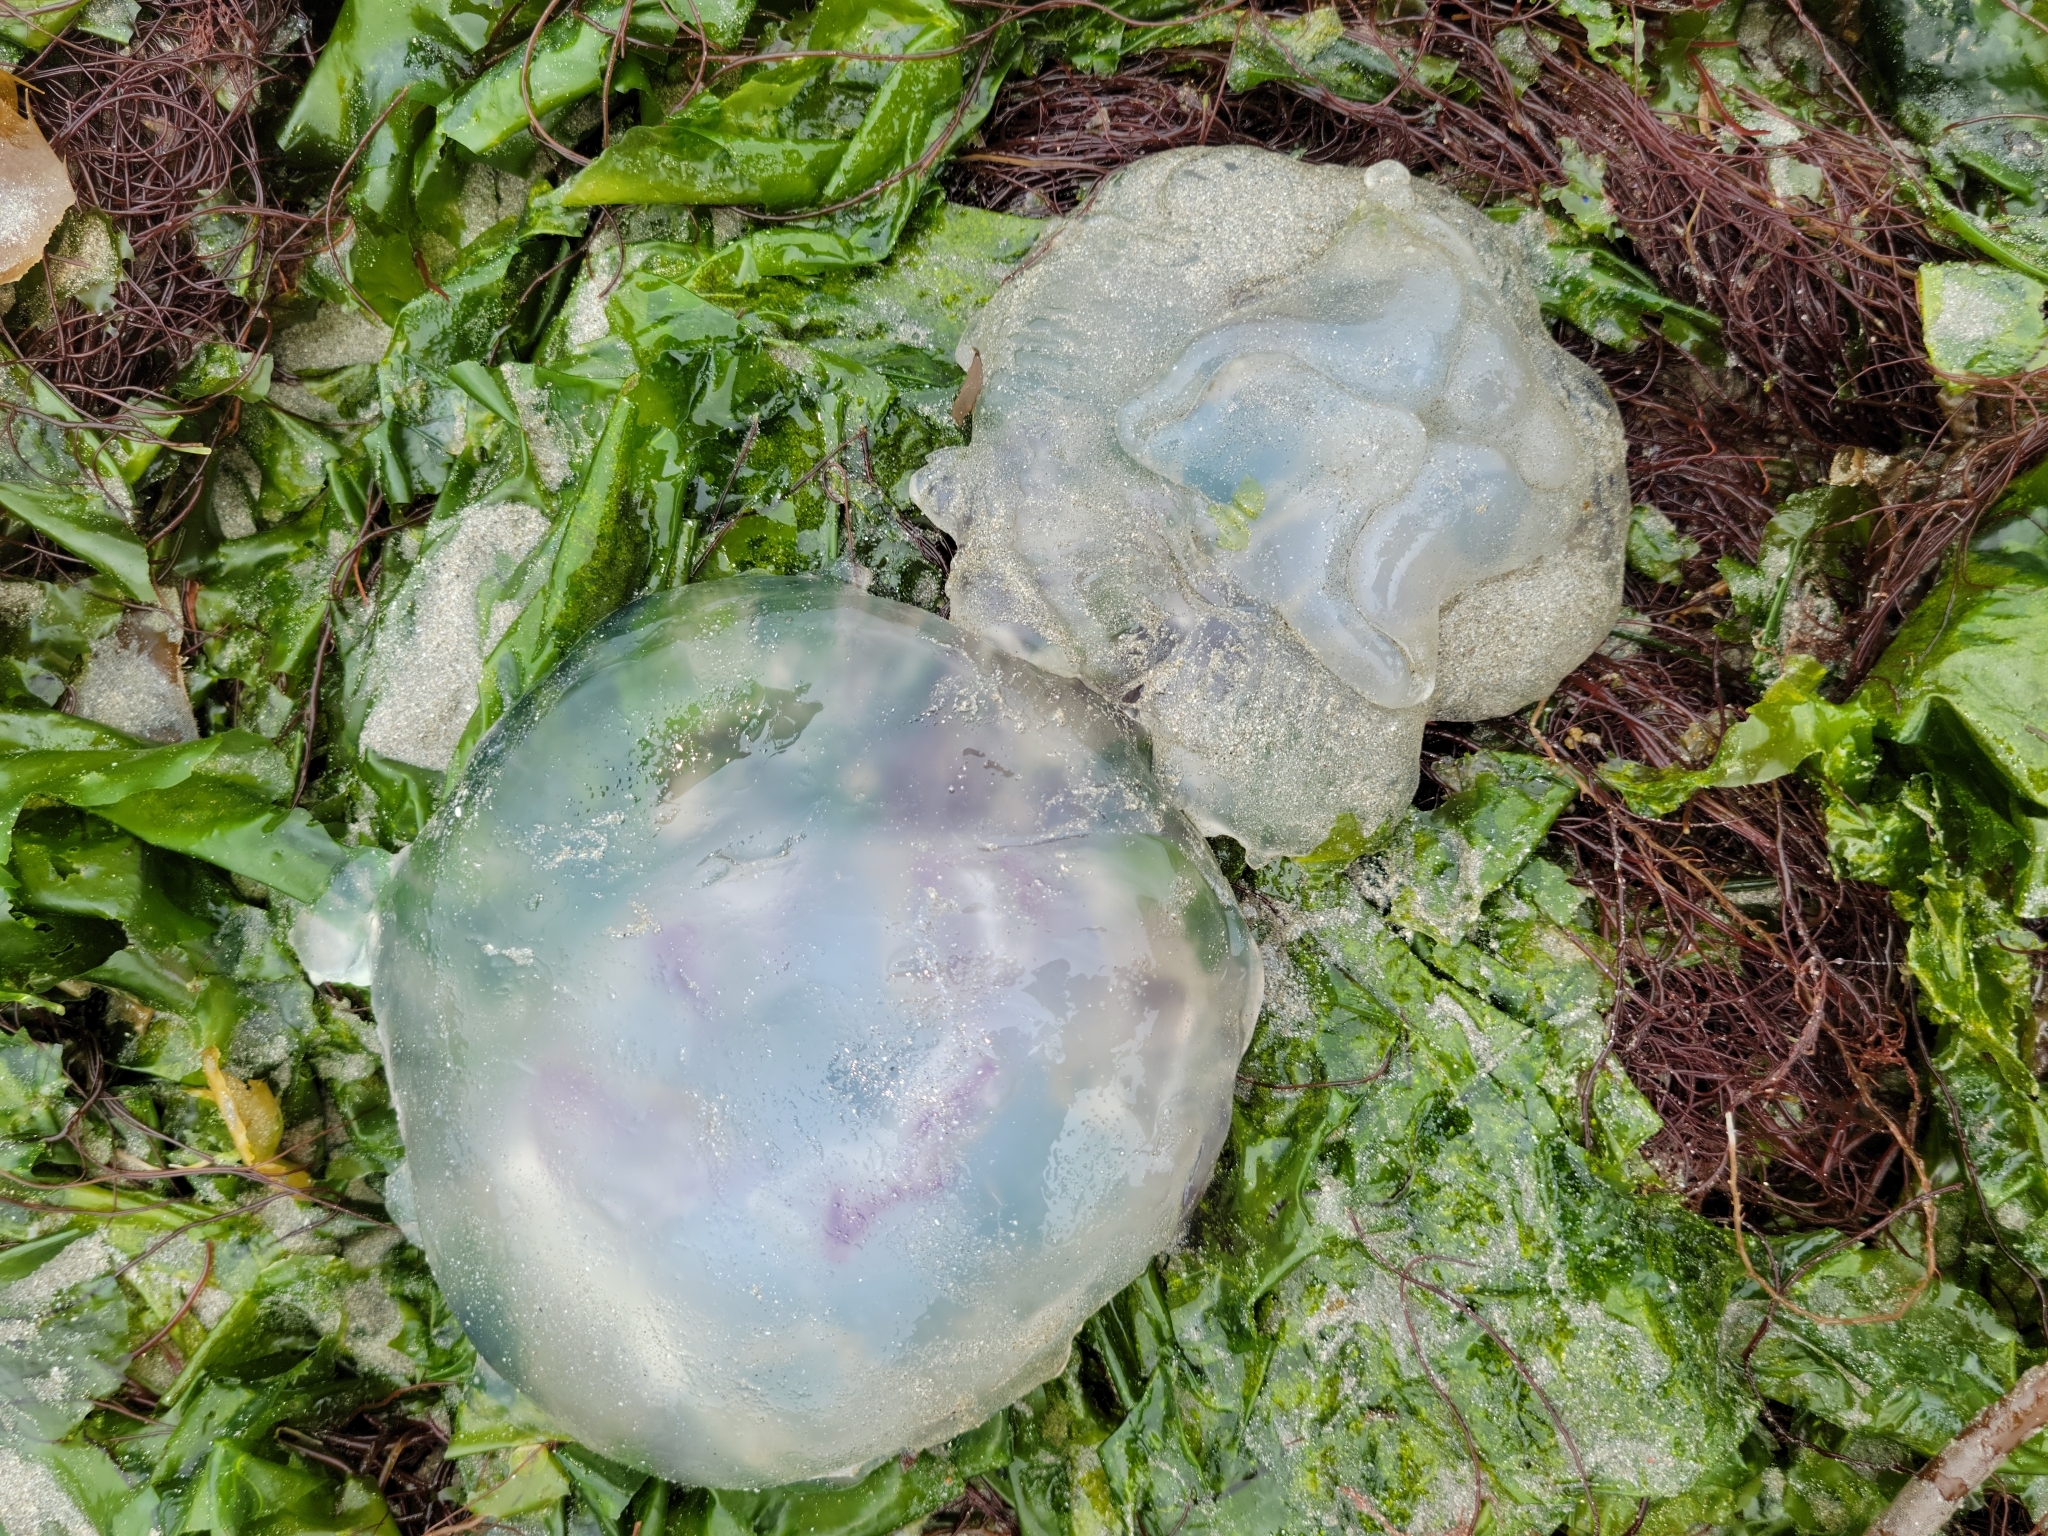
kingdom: Animalia
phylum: Cnidaria
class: Scyphozoa
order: Semaeostomeae
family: Ulmaridae
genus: Aurelia
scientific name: Aurelia labiata
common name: Pacific moon jelly
